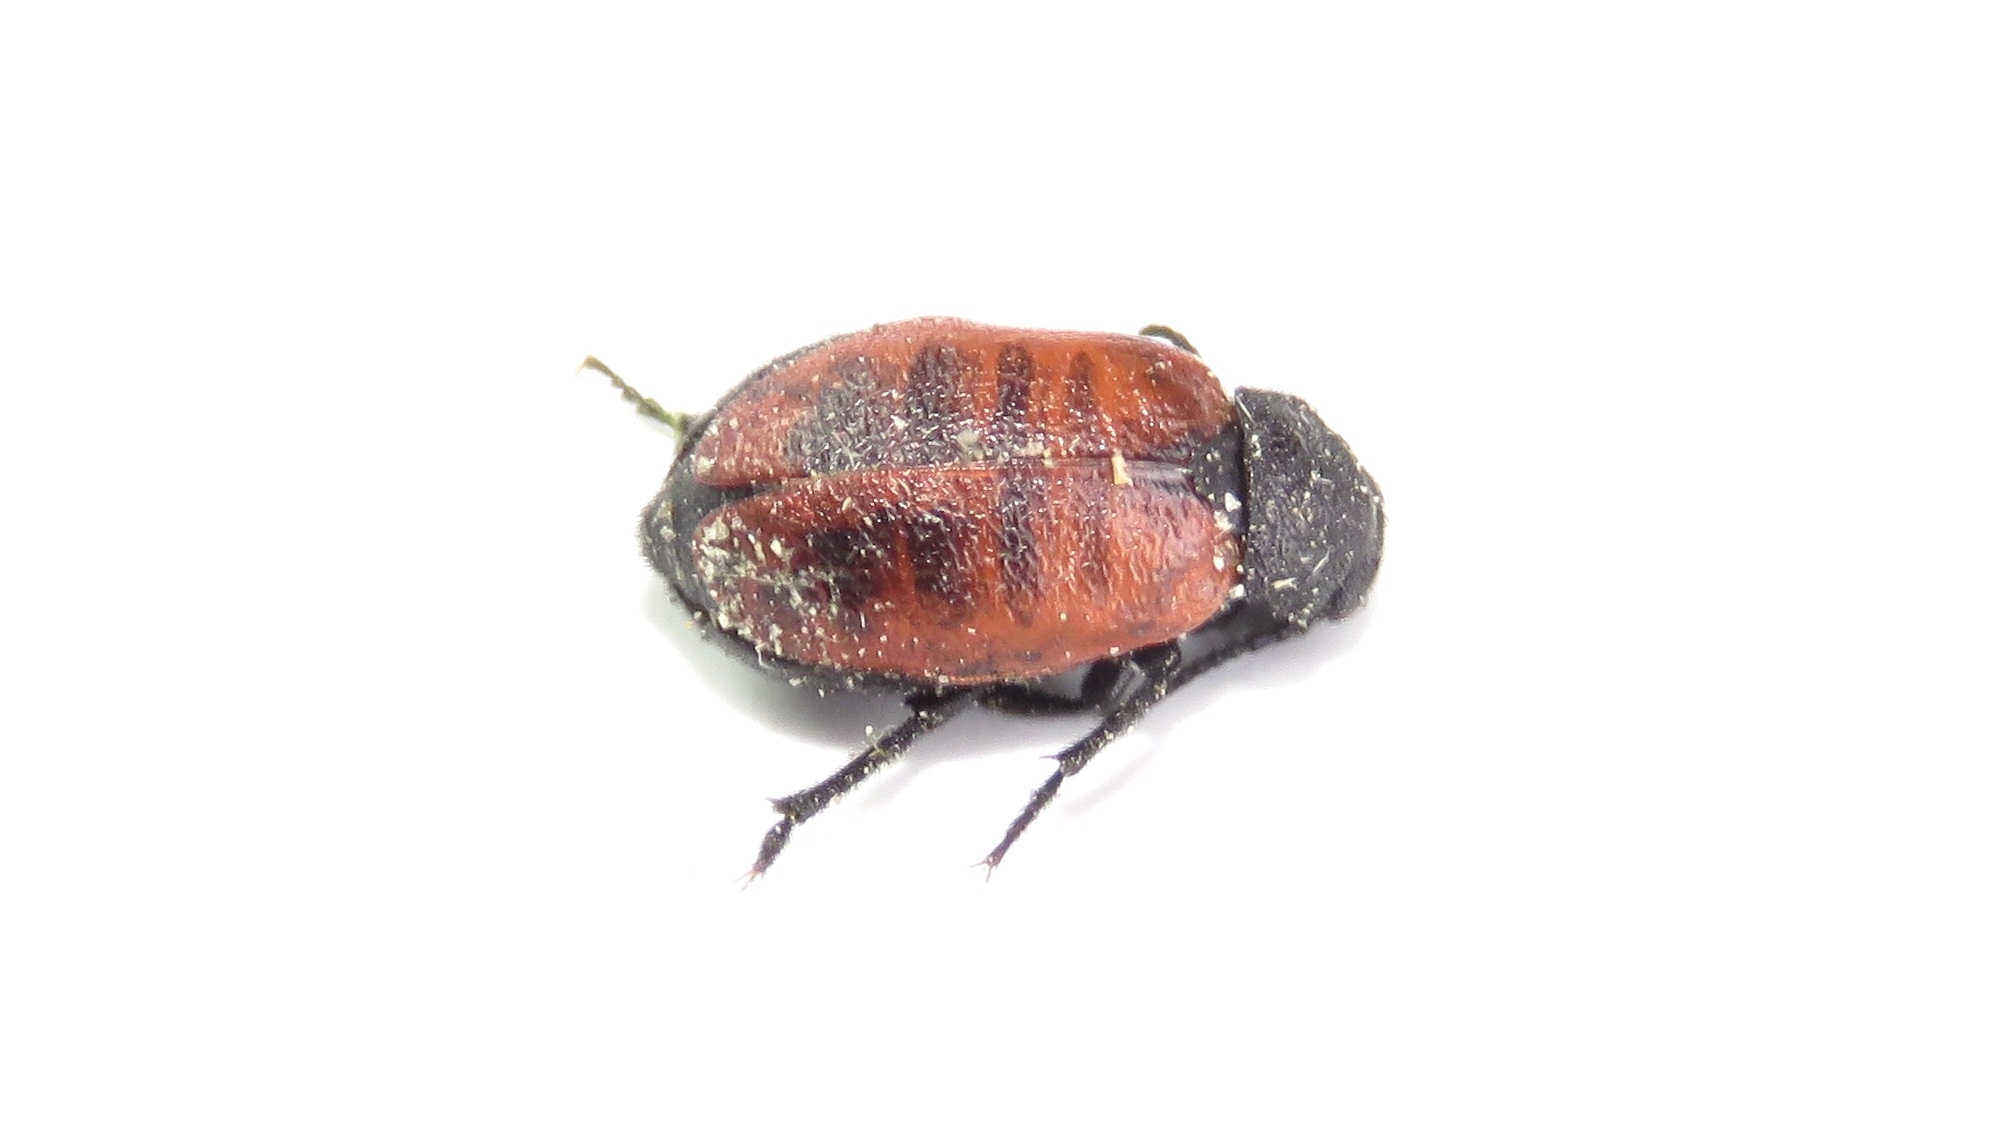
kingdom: Animalia
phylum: Arthropoda
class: Insecta
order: Coleoptera
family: Meloidae
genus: Tricrania
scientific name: Tricrania sanguinipennis
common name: Blood-winged blister beetle
